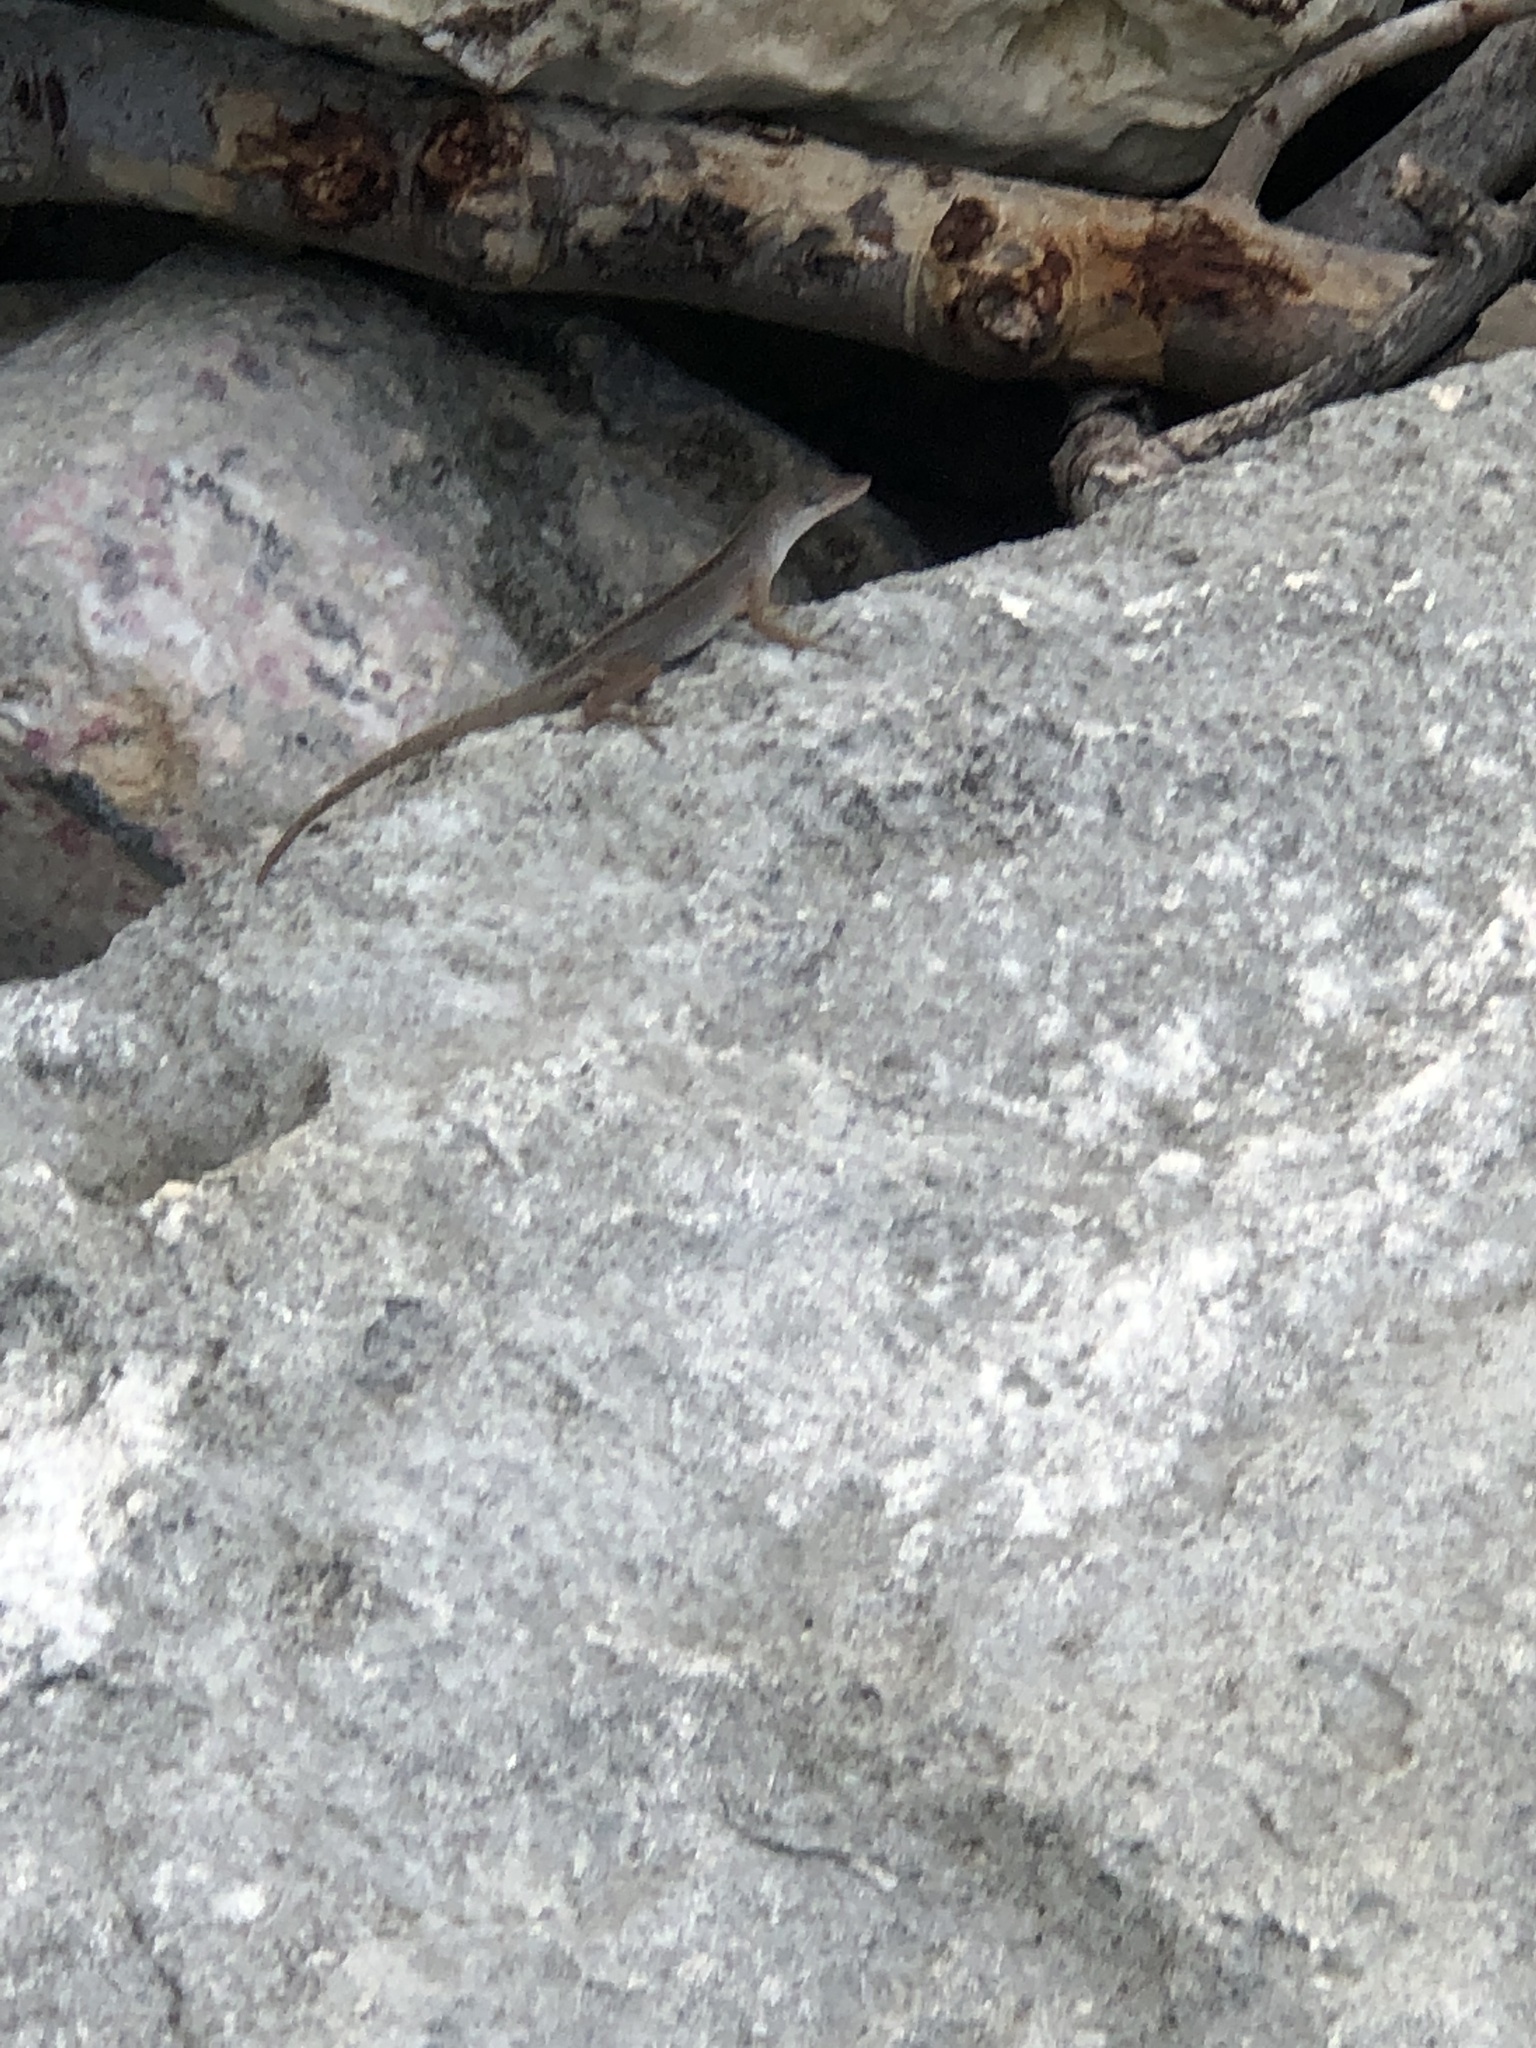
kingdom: Animalia
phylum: Chordata
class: Squamata
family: Dactyloidae
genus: Anolis
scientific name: Anolis sagrei
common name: Brown anole
